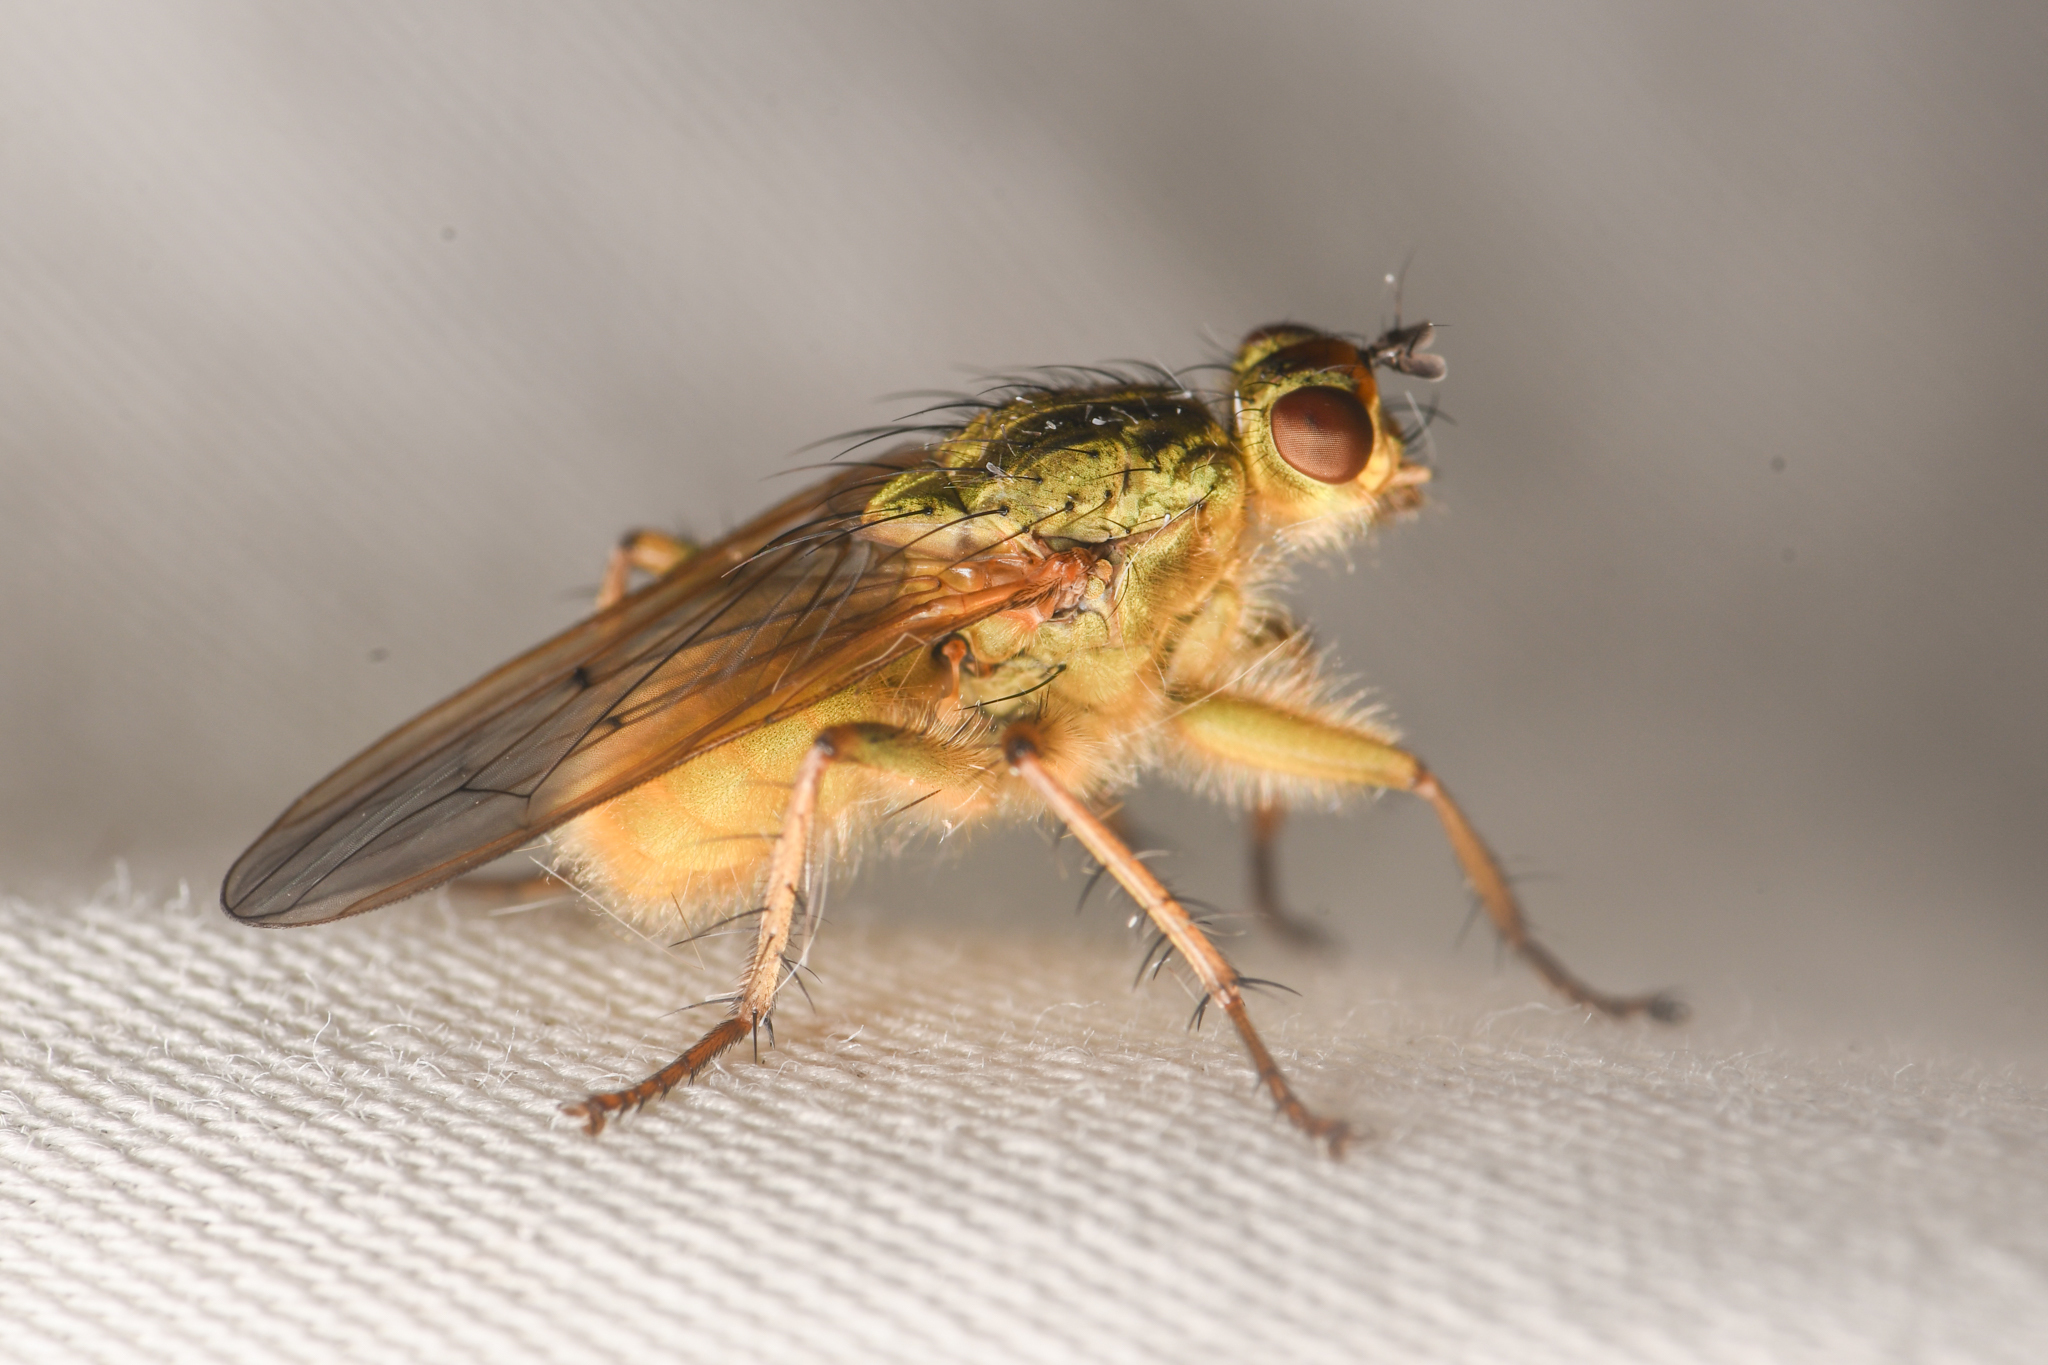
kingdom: Animalia
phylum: Arthropoda
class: Insecta
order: Diptera
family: Scathophagidae
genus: Scathophaga
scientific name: Scathophaga stercoraria
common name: Yellow dung fly
